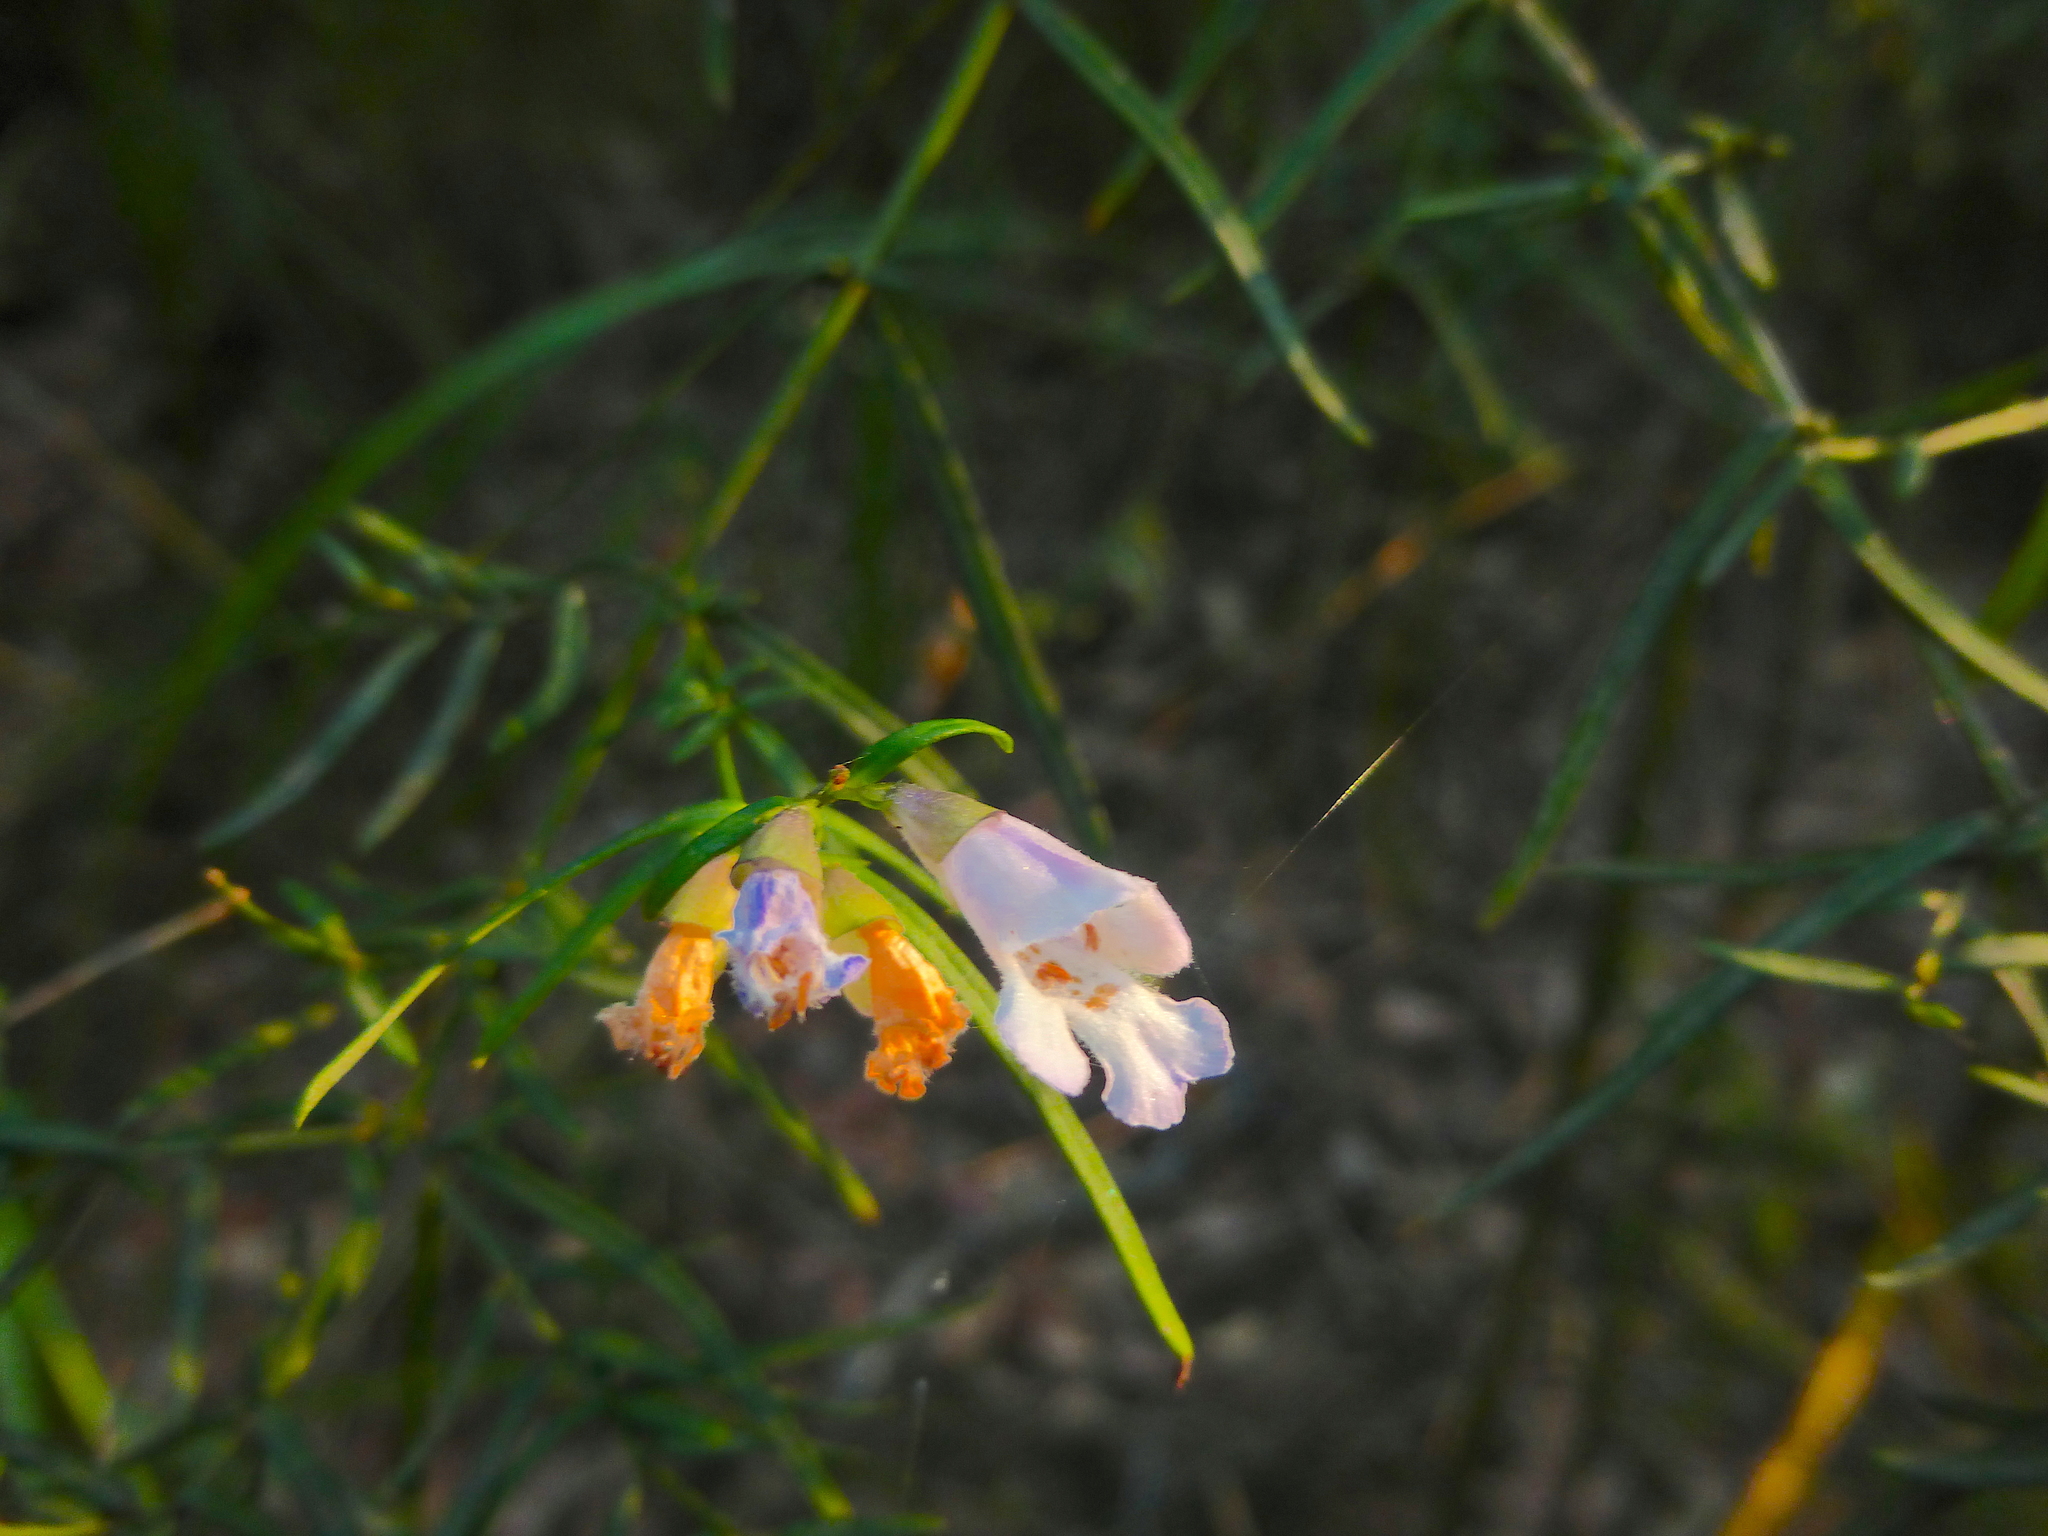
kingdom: Plantae
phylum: Tracheophyta
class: Magnoliopsida
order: Lamiales
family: Lamiaceae
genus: Prostanthera
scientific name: Prostanthera linearis
